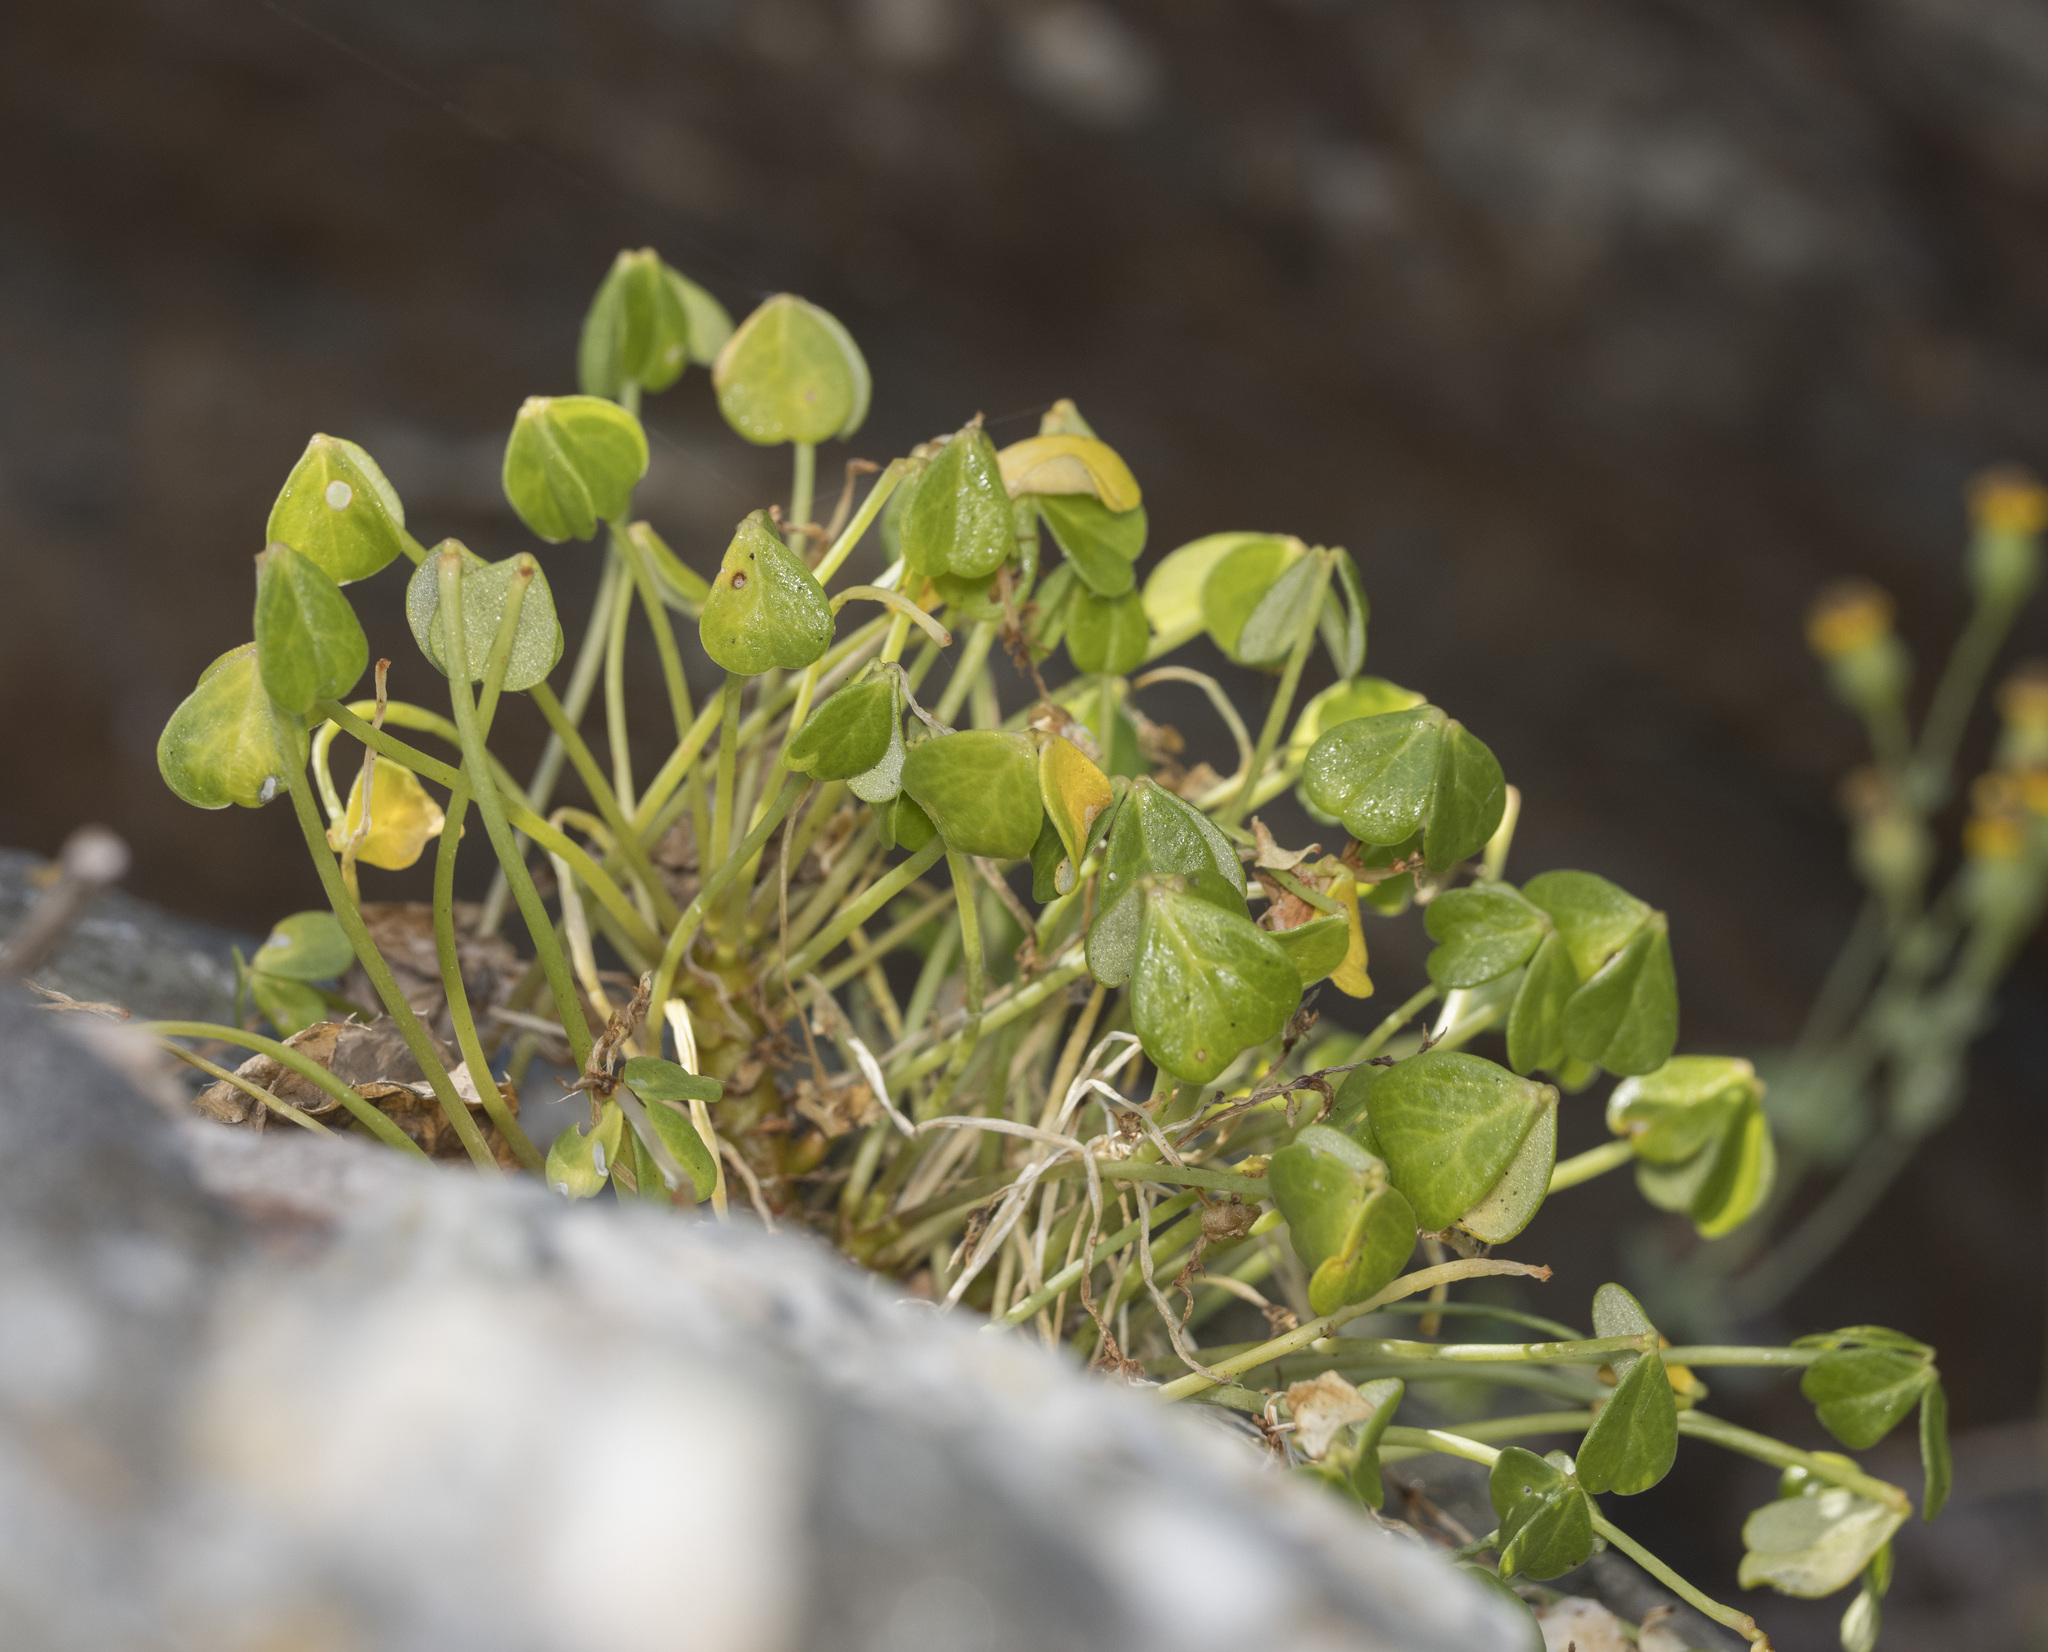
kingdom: Plantae
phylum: Tracheophyta
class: Magnoliopsida
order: Oxalidales
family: Oxalidaceae
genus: Oxalis
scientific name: Oxalis megalorrhiza
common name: Fleshy yellow-sorrel
